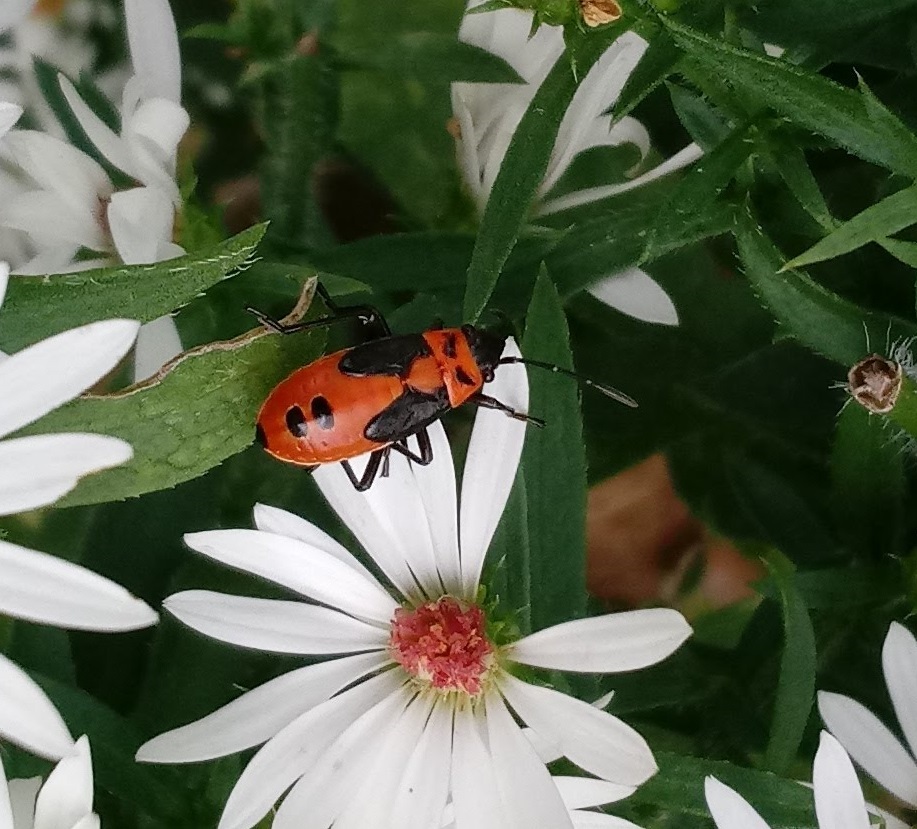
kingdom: Animalia
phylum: Arthropoda
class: Insecta
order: Hemiptera
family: Lygaeidae
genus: Lygaeus
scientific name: Lygaeus turcicus
